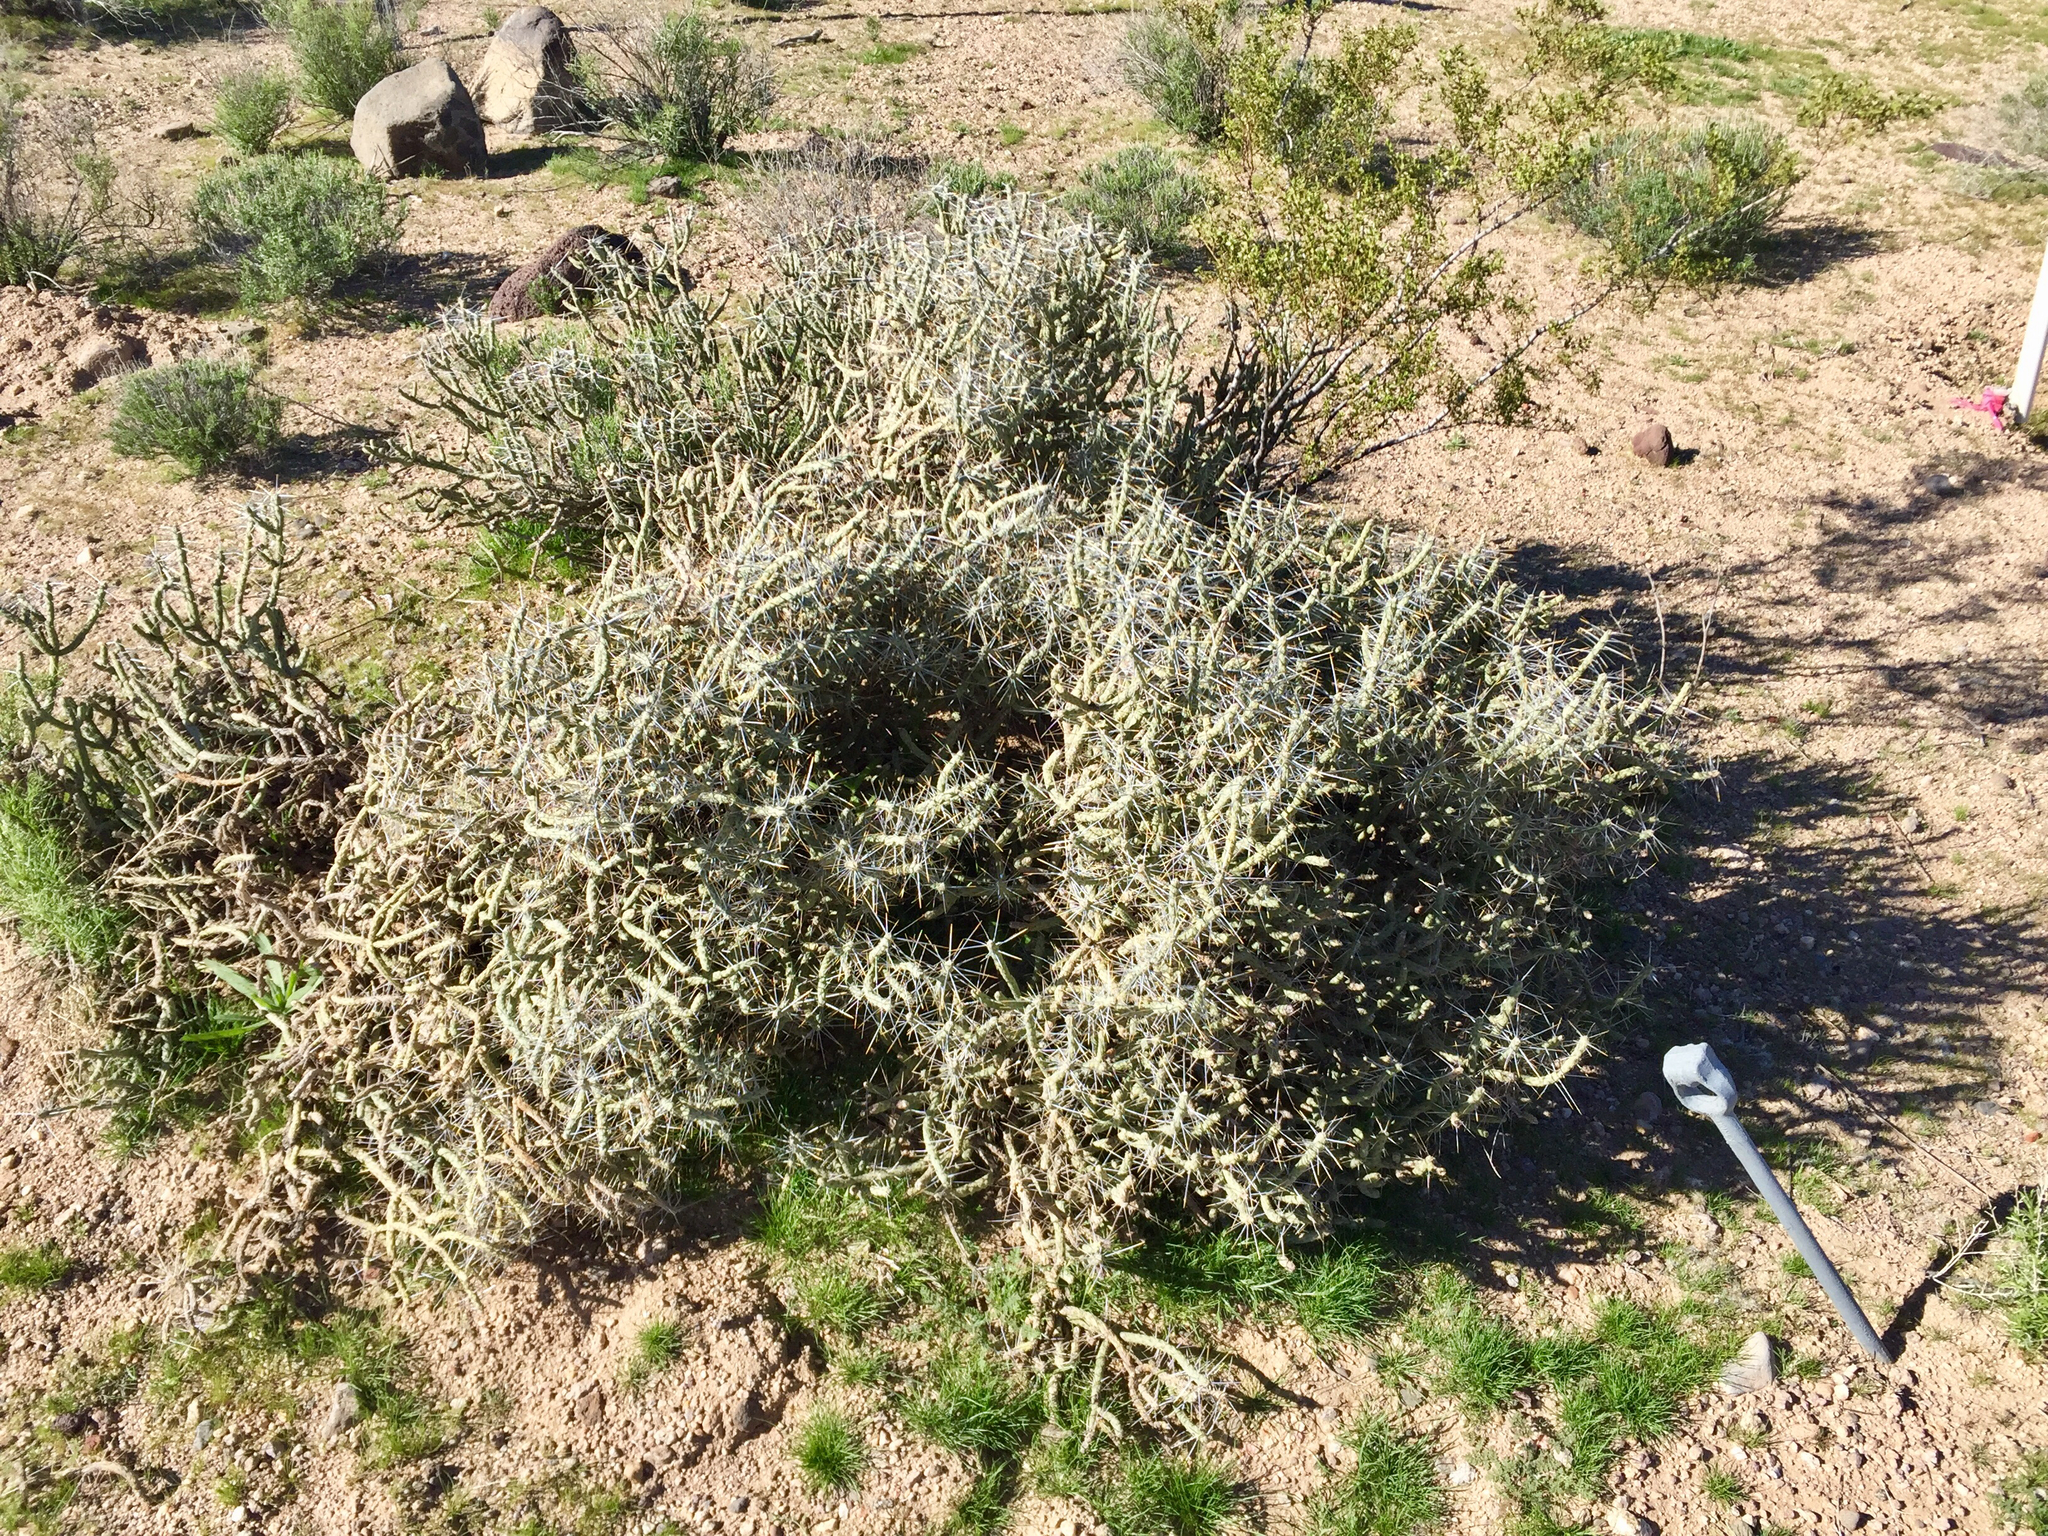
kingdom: Plantae
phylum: Tracheophyta
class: Magnoliopsida
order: Caryophyllales
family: Cactaceae
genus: Cylindropuntia
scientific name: Cylindropuntia ramosissima
